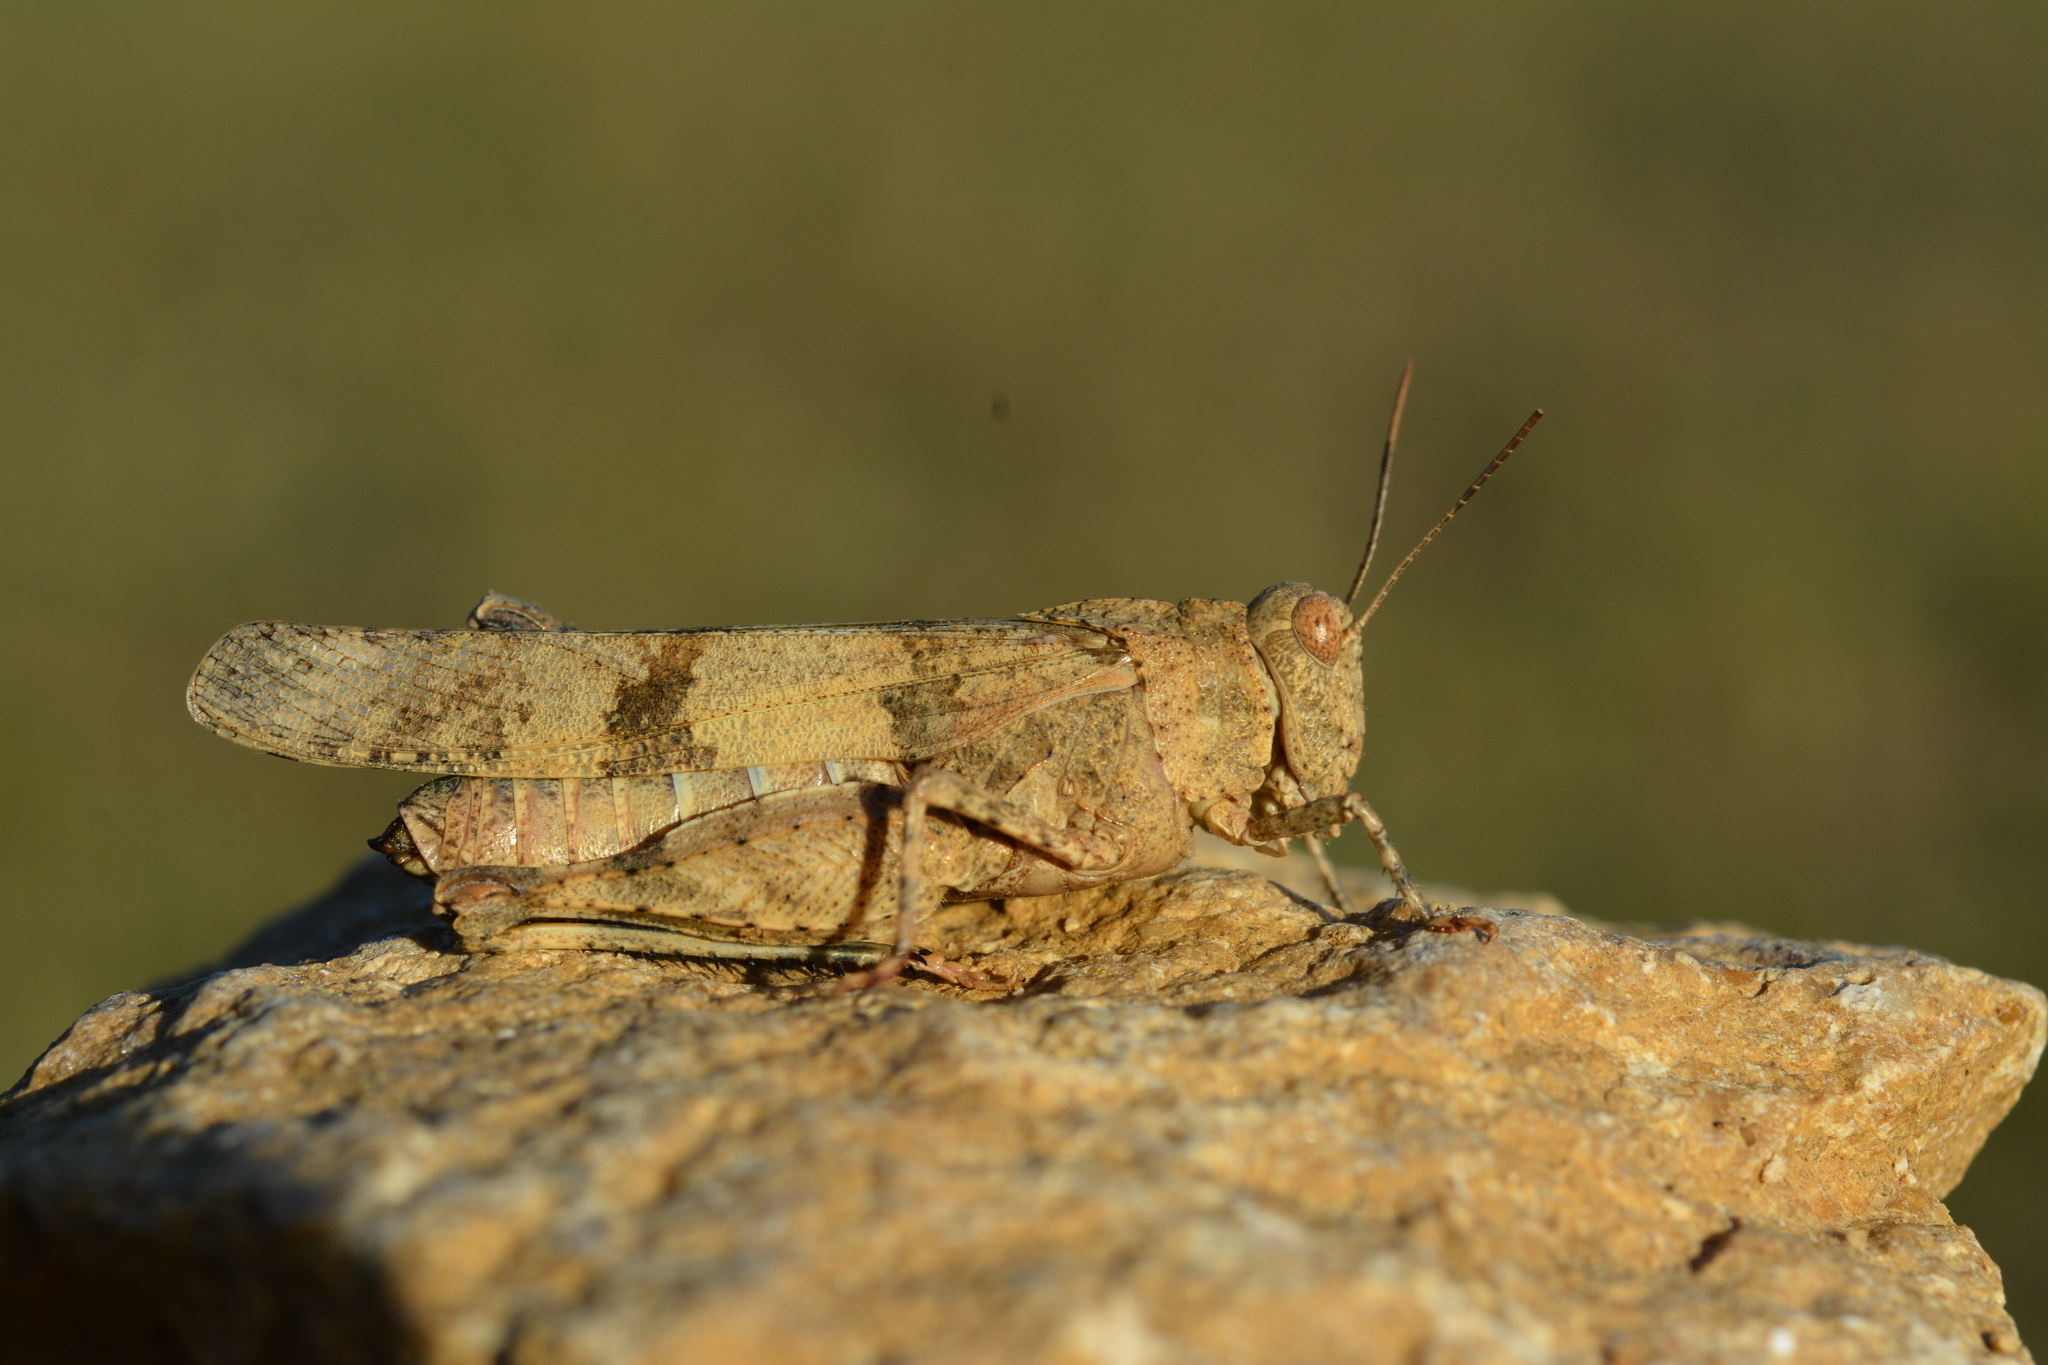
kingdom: Animalia
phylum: Arthropoda
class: Insecta
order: Orthoptera
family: Acrididae
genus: Oedipoda
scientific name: Oedipoda caerulescens
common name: Blue-winged grasshopper
